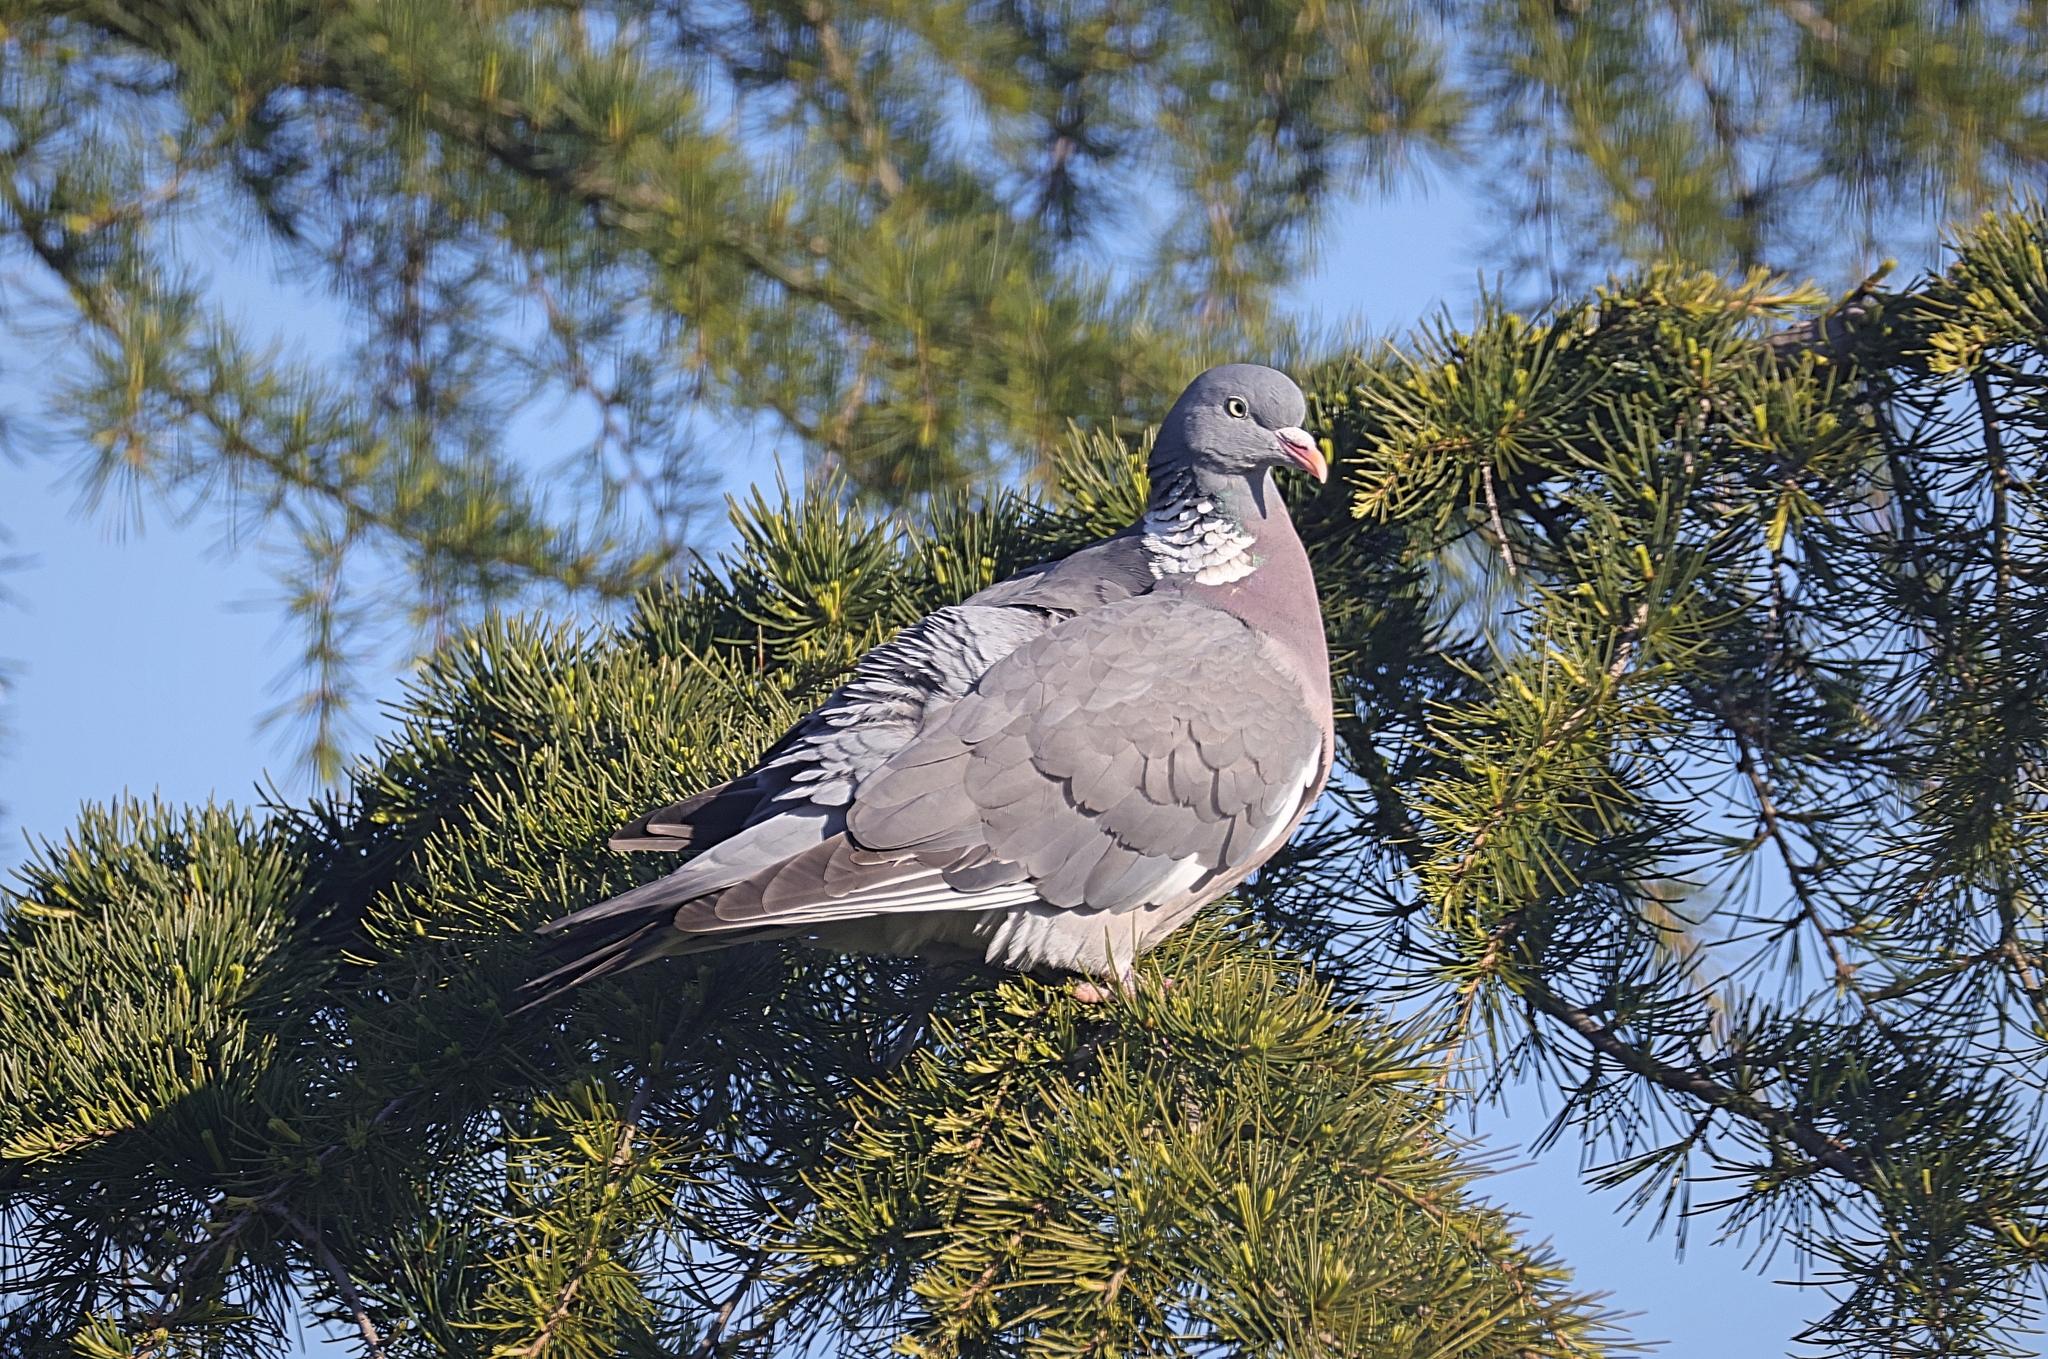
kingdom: Animalia
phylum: Chordata
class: Aves
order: Columbiformes
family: Columbidae
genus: Columba
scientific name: Columba palumbus
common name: Common wood pigeon
